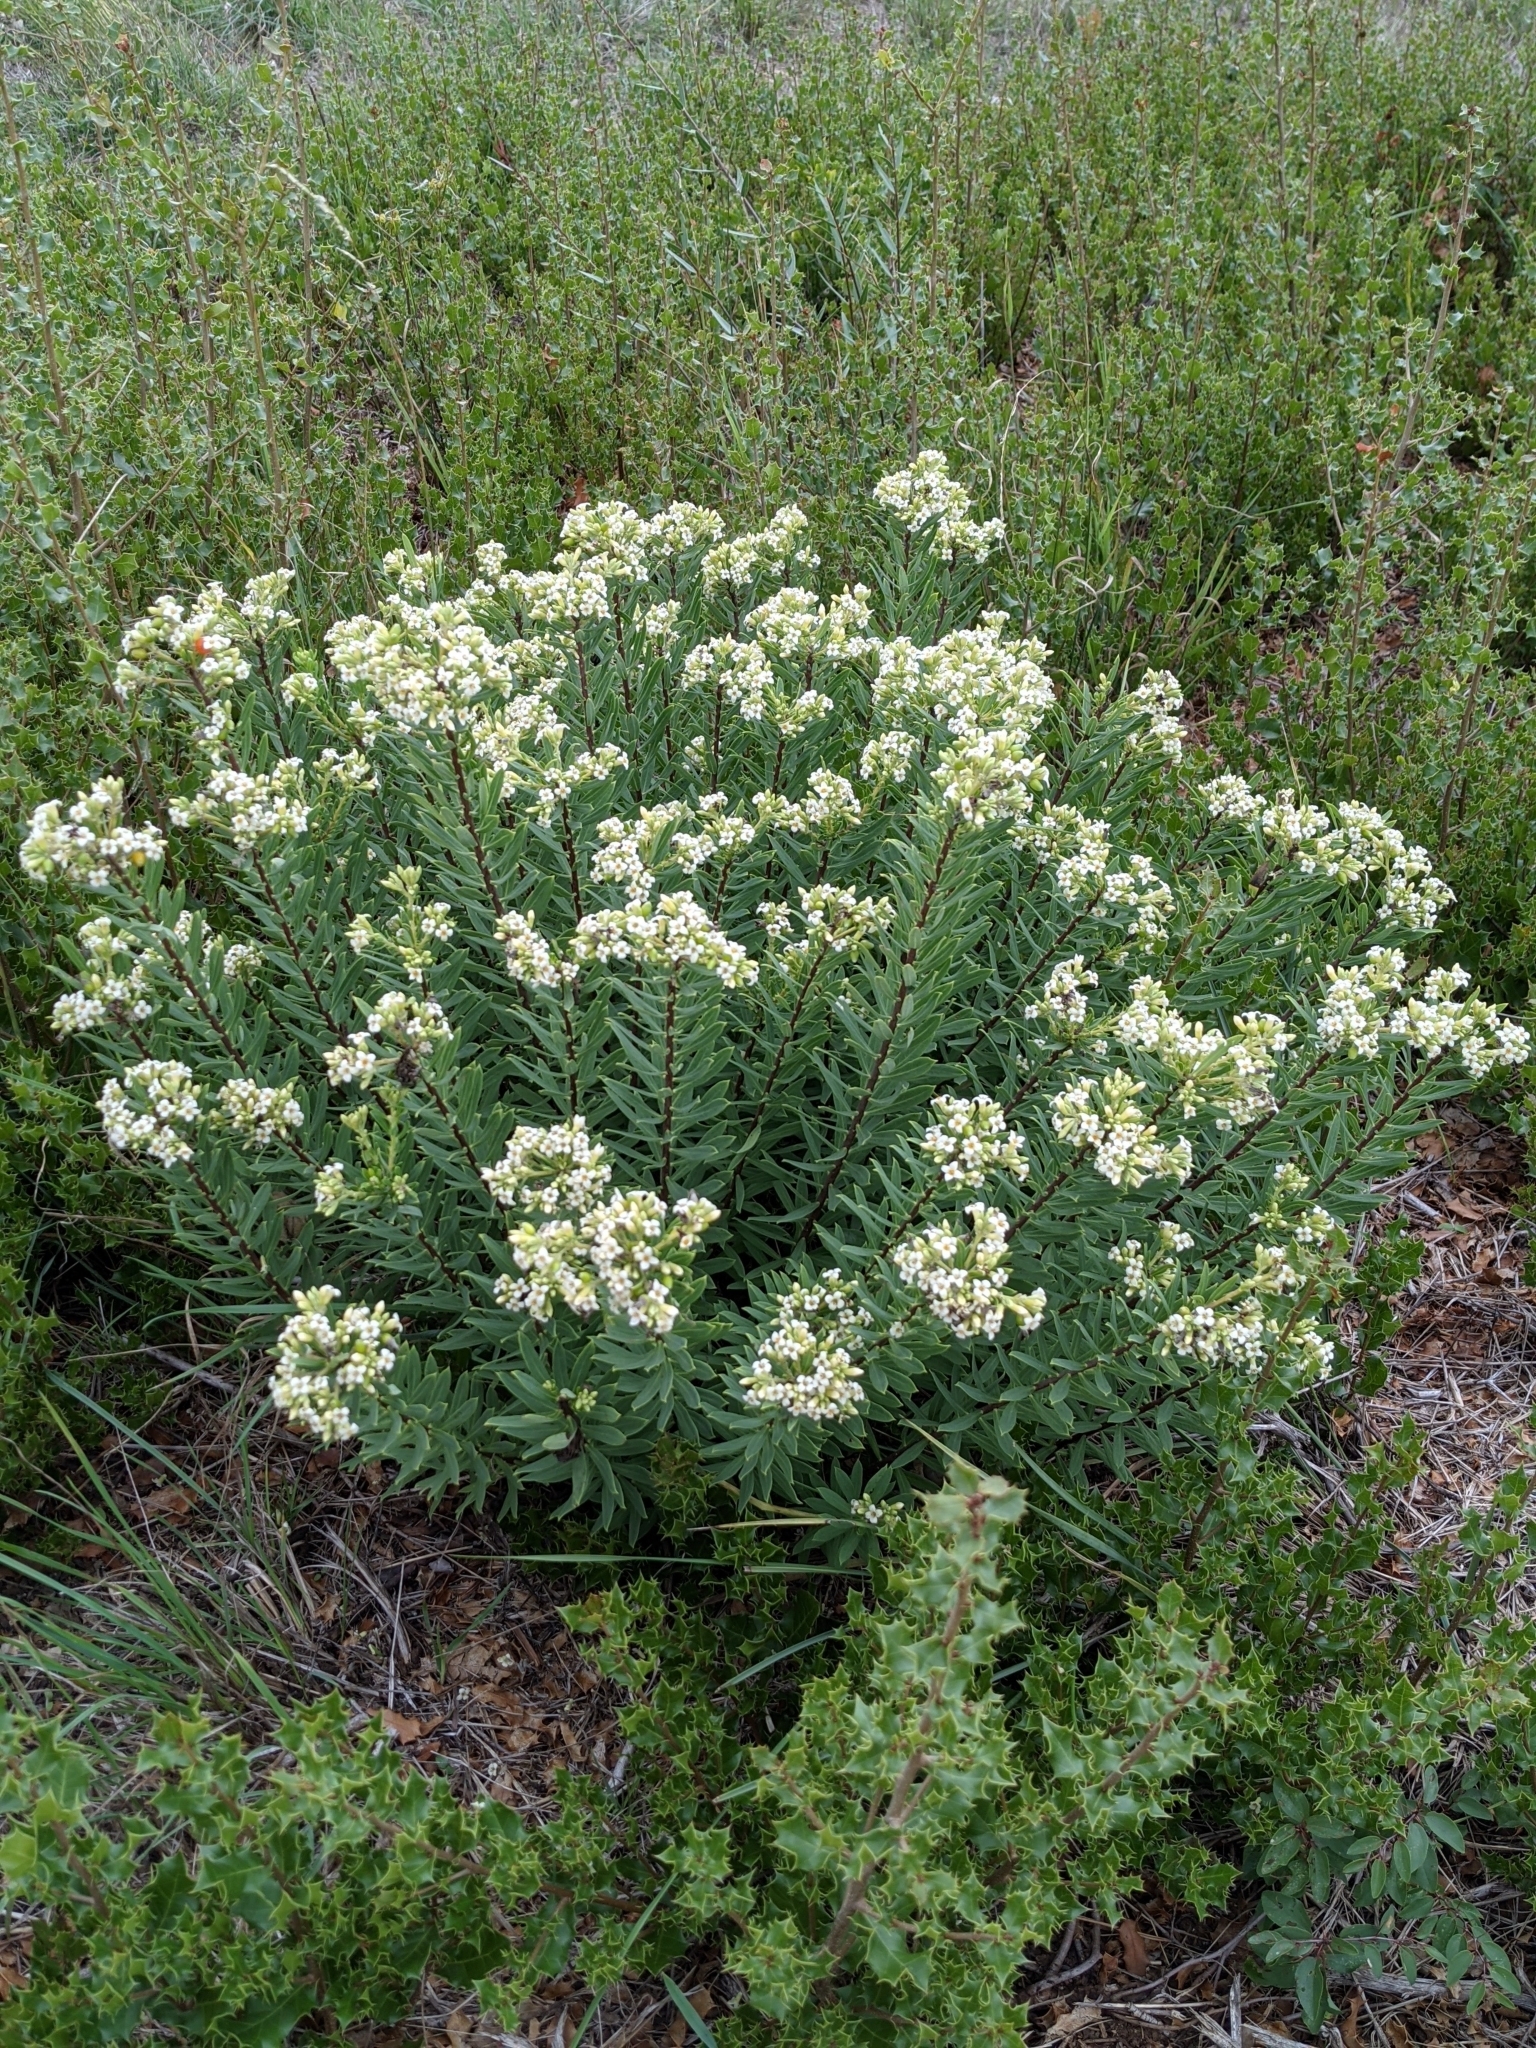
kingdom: Plantae
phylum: Tracheophyta
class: Magnoliopsida
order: Malvales
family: Thymelaeaceae
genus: Daphne
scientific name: Daphne gnidium
